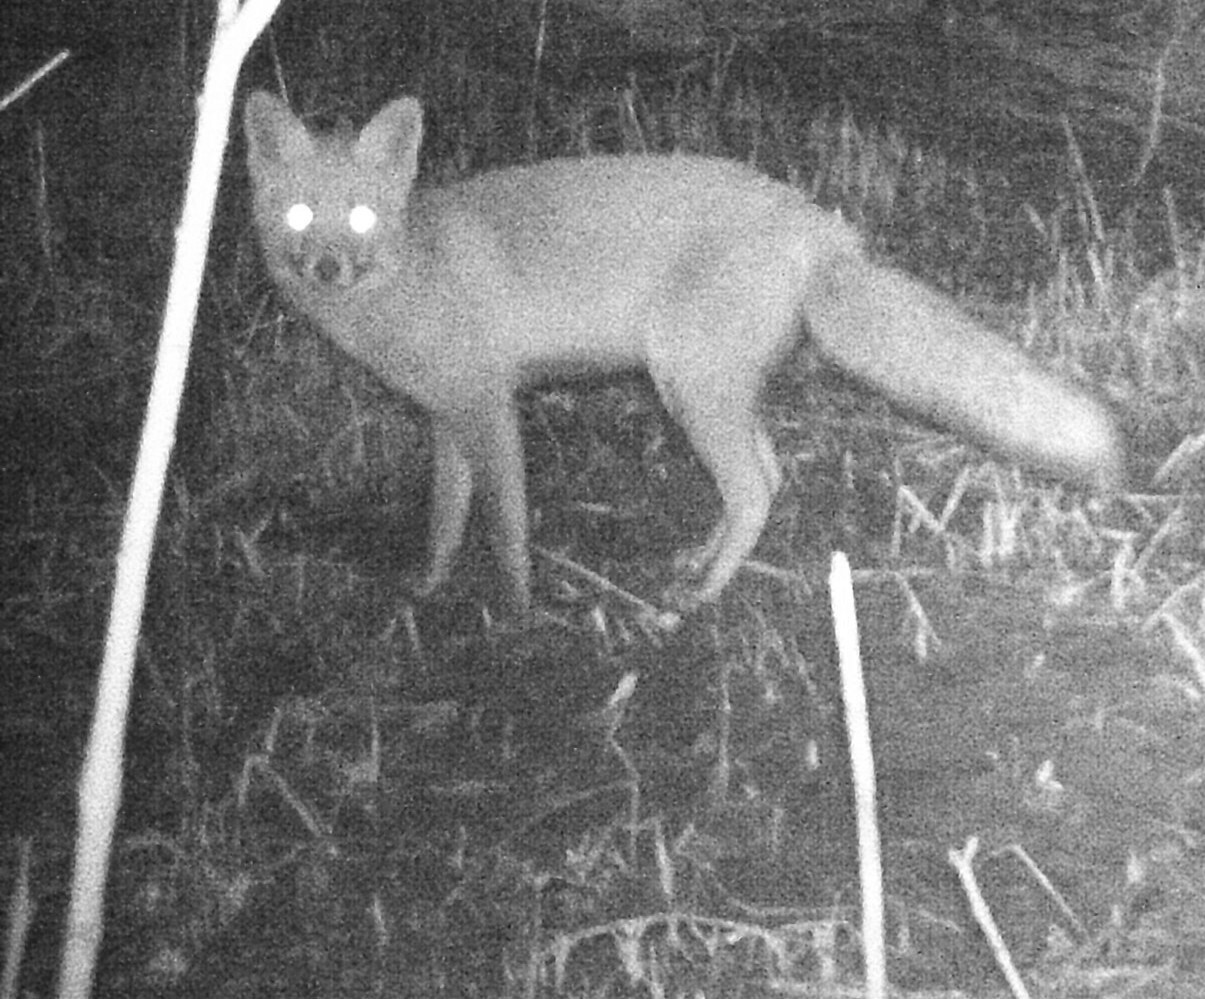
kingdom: Animalia
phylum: Chordata
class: Mammalia
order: Carnivora
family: Canidae
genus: Vulpes
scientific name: Vulpes vulpes
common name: Red fox
